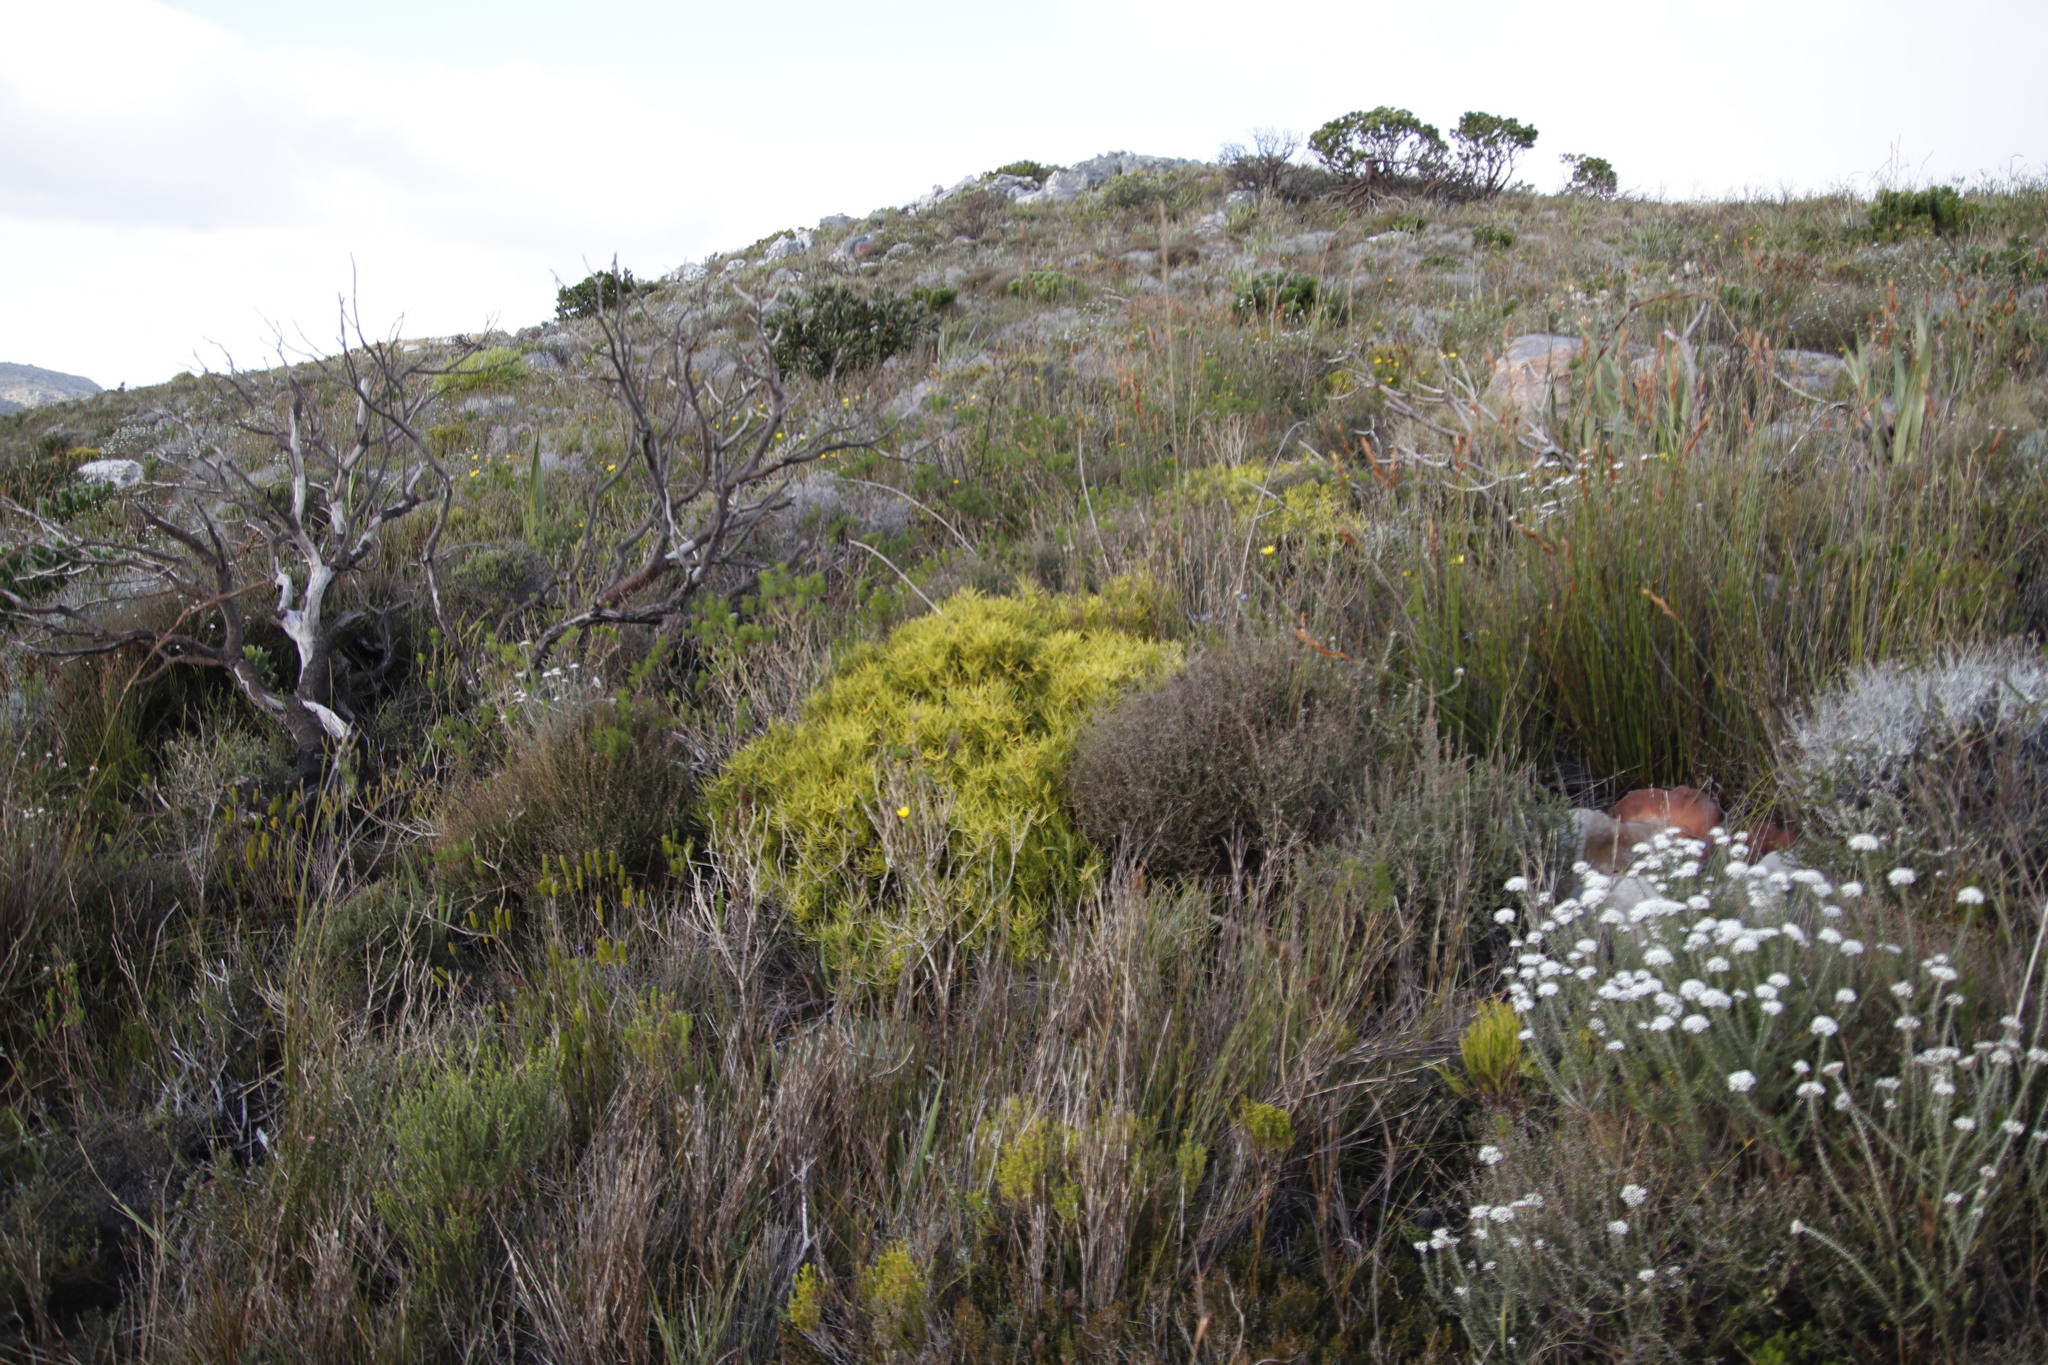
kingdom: Plantae
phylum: Tracheophyta
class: Magnoliopsida
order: Proteales
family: Proteaceae
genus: Leucadendron
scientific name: Leucadendron salignum
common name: Common sunshine conebush
